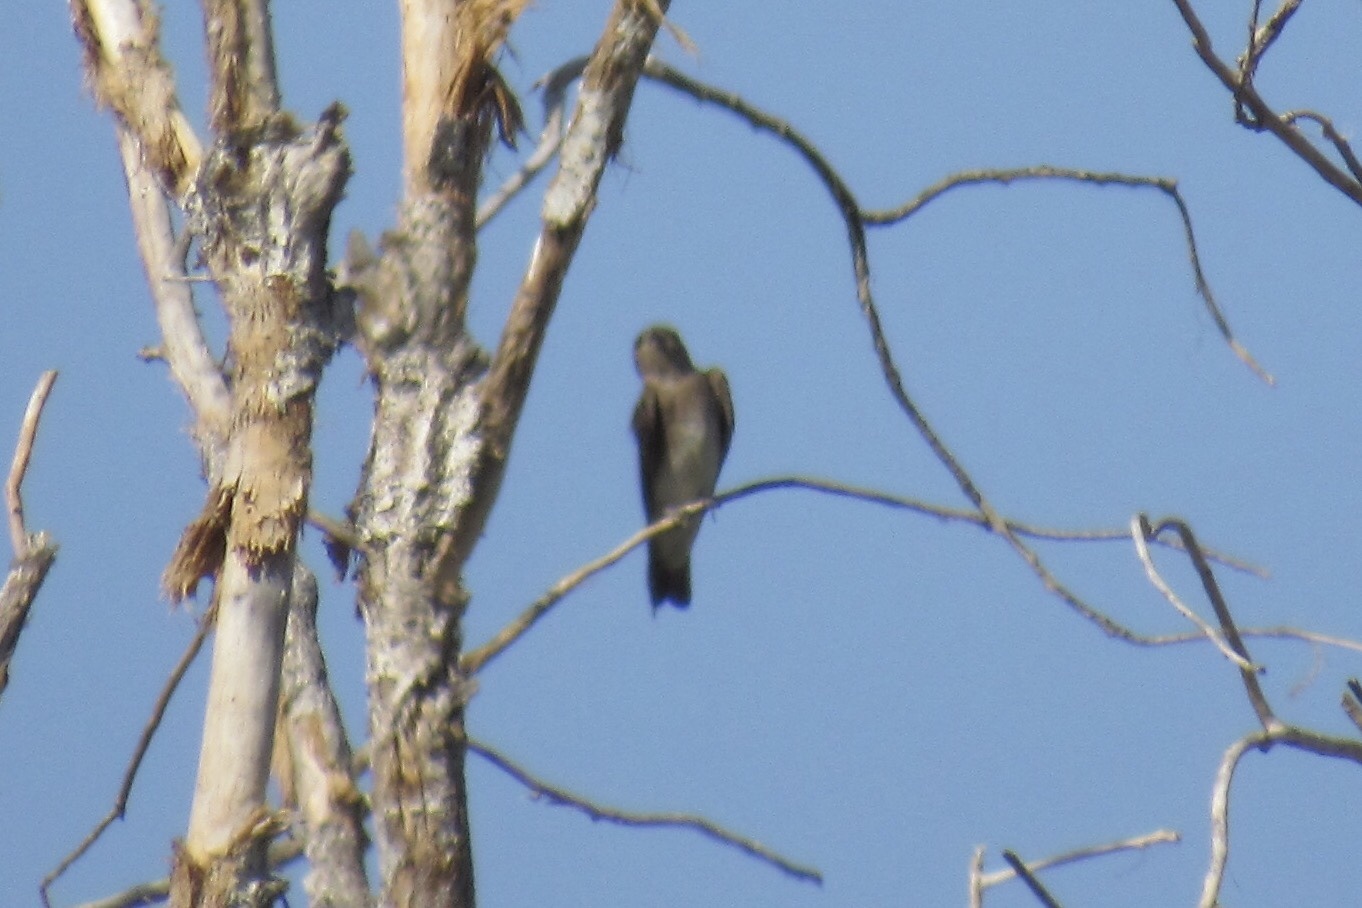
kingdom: Animalia
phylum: Chordata
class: Aves
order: Passeriformes
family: Hirundinidae
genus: Stelgidopteryx
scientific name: Stelgidopteryx serripennis
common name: Northern rough-winged swallow
